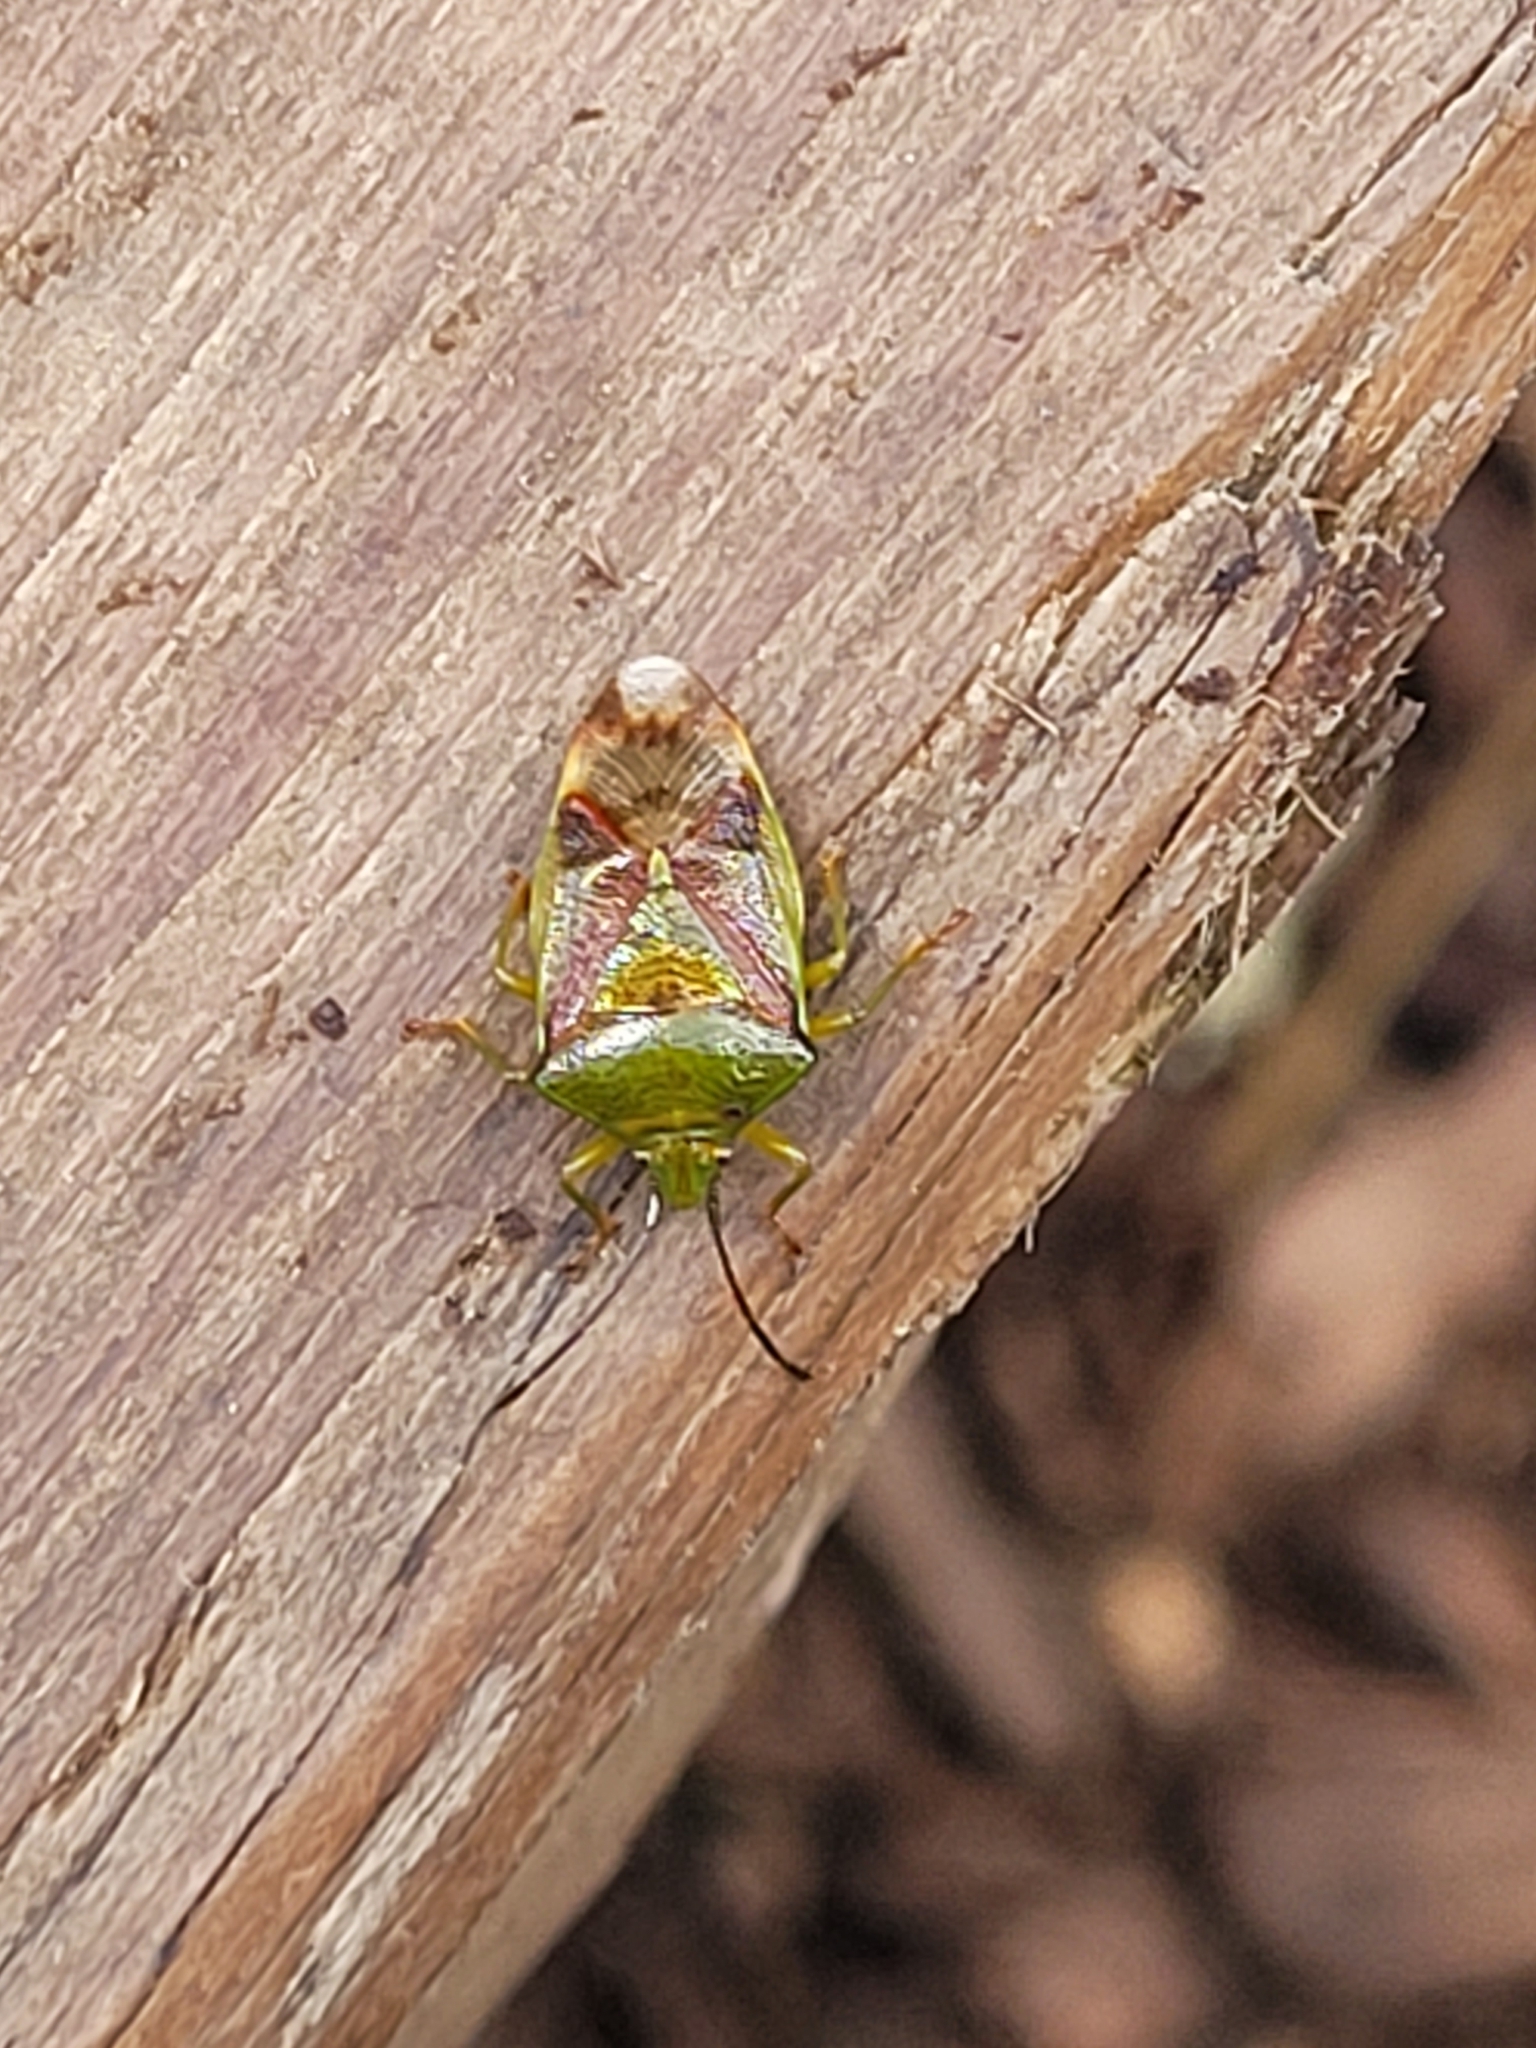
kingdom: Animalia
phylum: Arthropoda
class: Insecta
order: Hemiptera
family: Acanthosomatidae
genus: Elasmostethus
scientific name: Elasmostethus interstinctus
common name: Birch shieldbug
